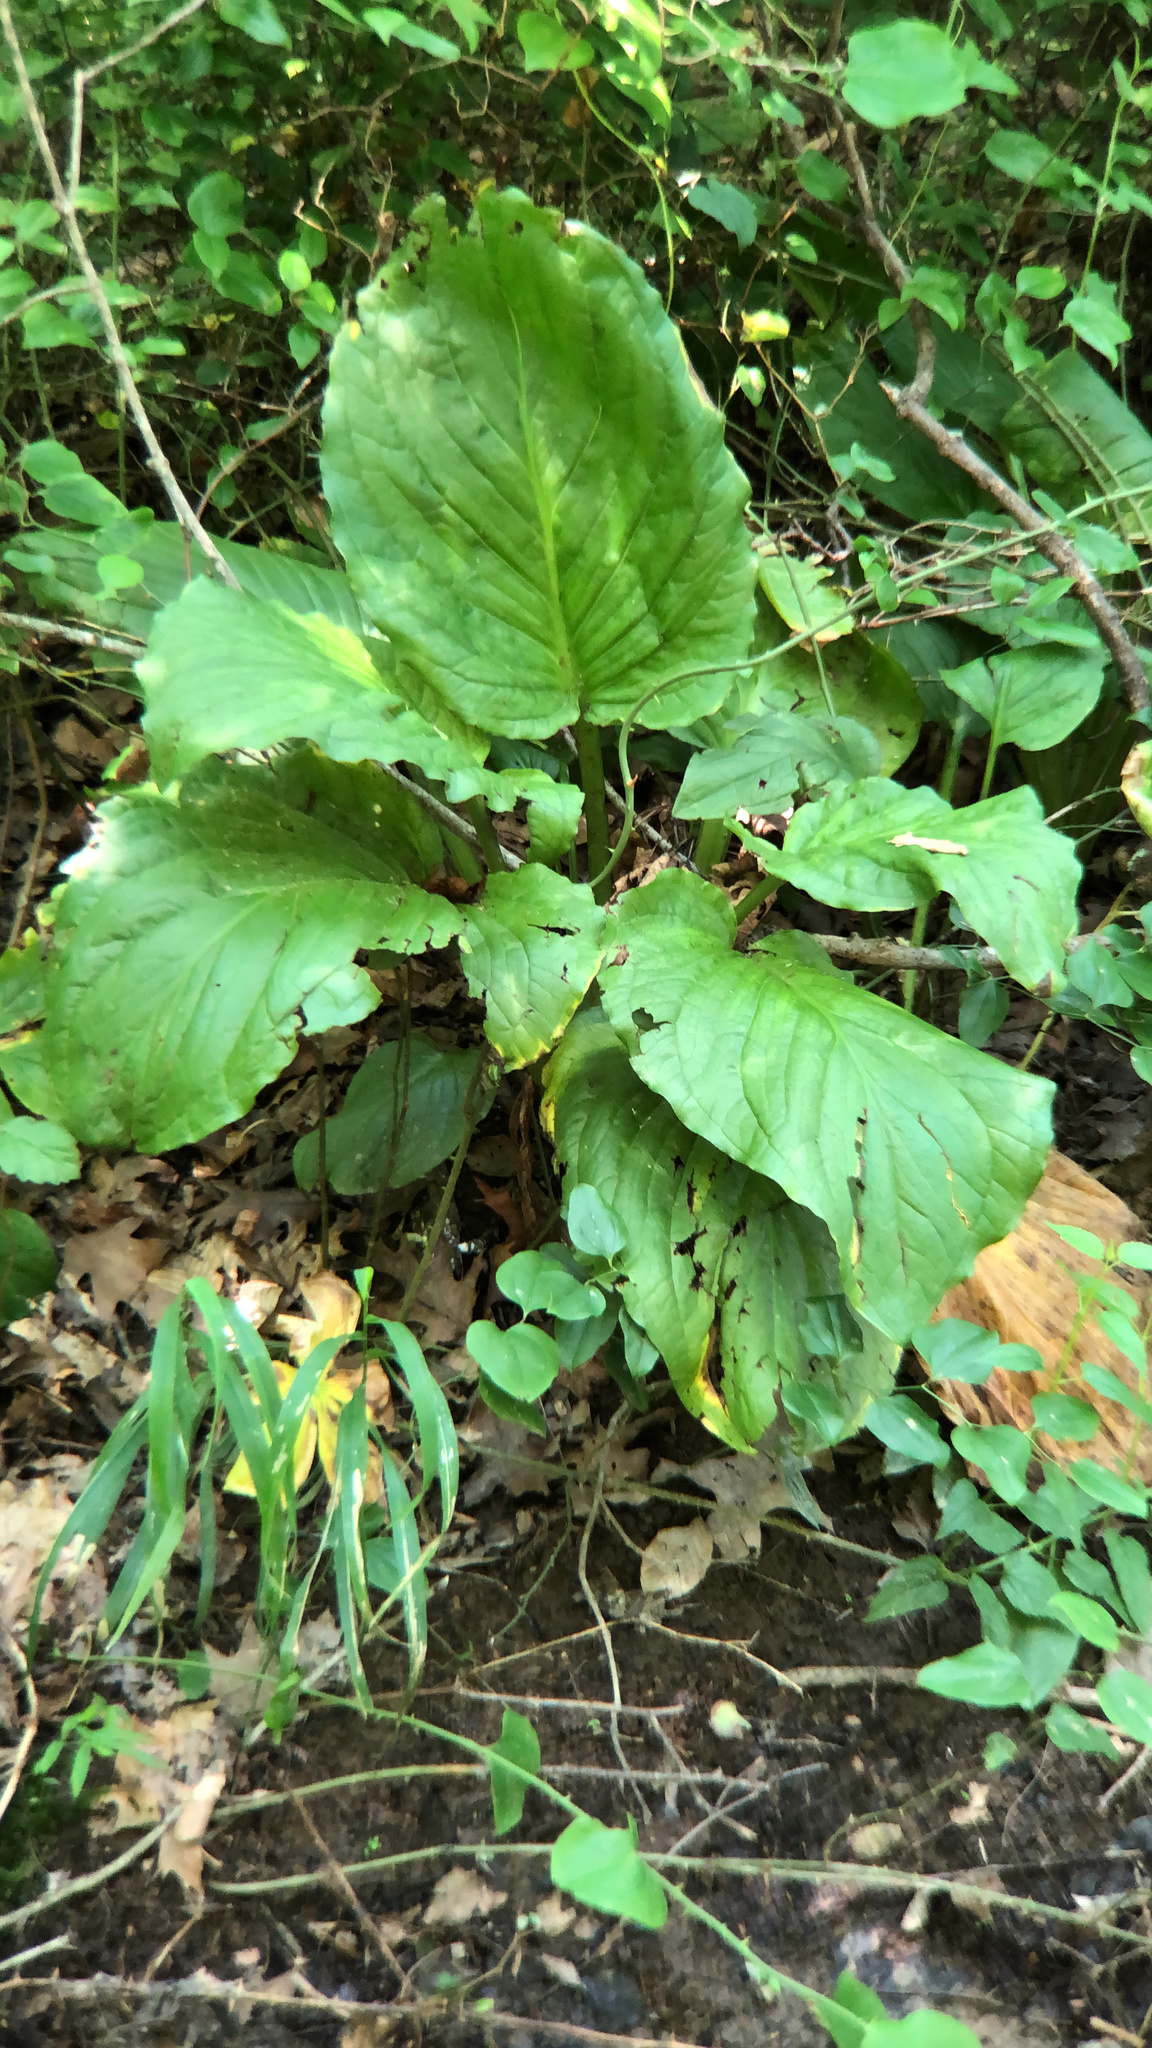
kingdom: Plantae
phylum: Tracheophyta
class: Liliopsida
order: Alismatales
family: Araceae
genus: Symplocarpus
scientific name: Symplocarpus foetidus
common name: Eastern skunk cabbage
